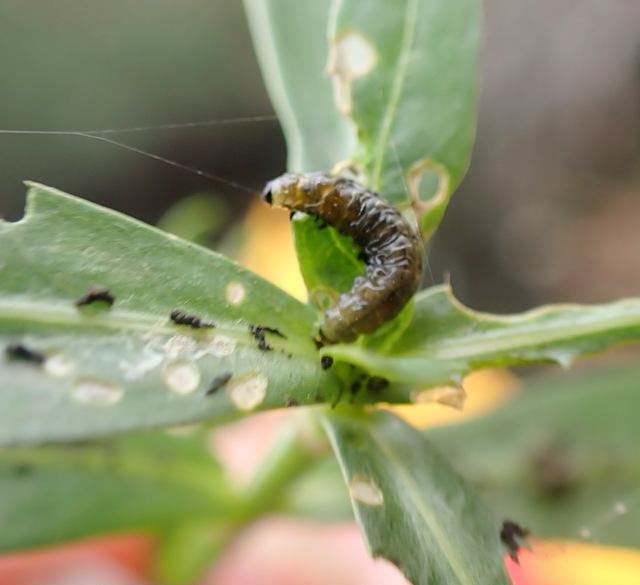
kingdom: Animalia
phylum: Arthropoda
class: Insecta
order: Coleoptera
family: Chrysomelidae
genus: Agasicles
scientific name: Agasicles hygrophila
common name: Alligatorweed flea beetle
